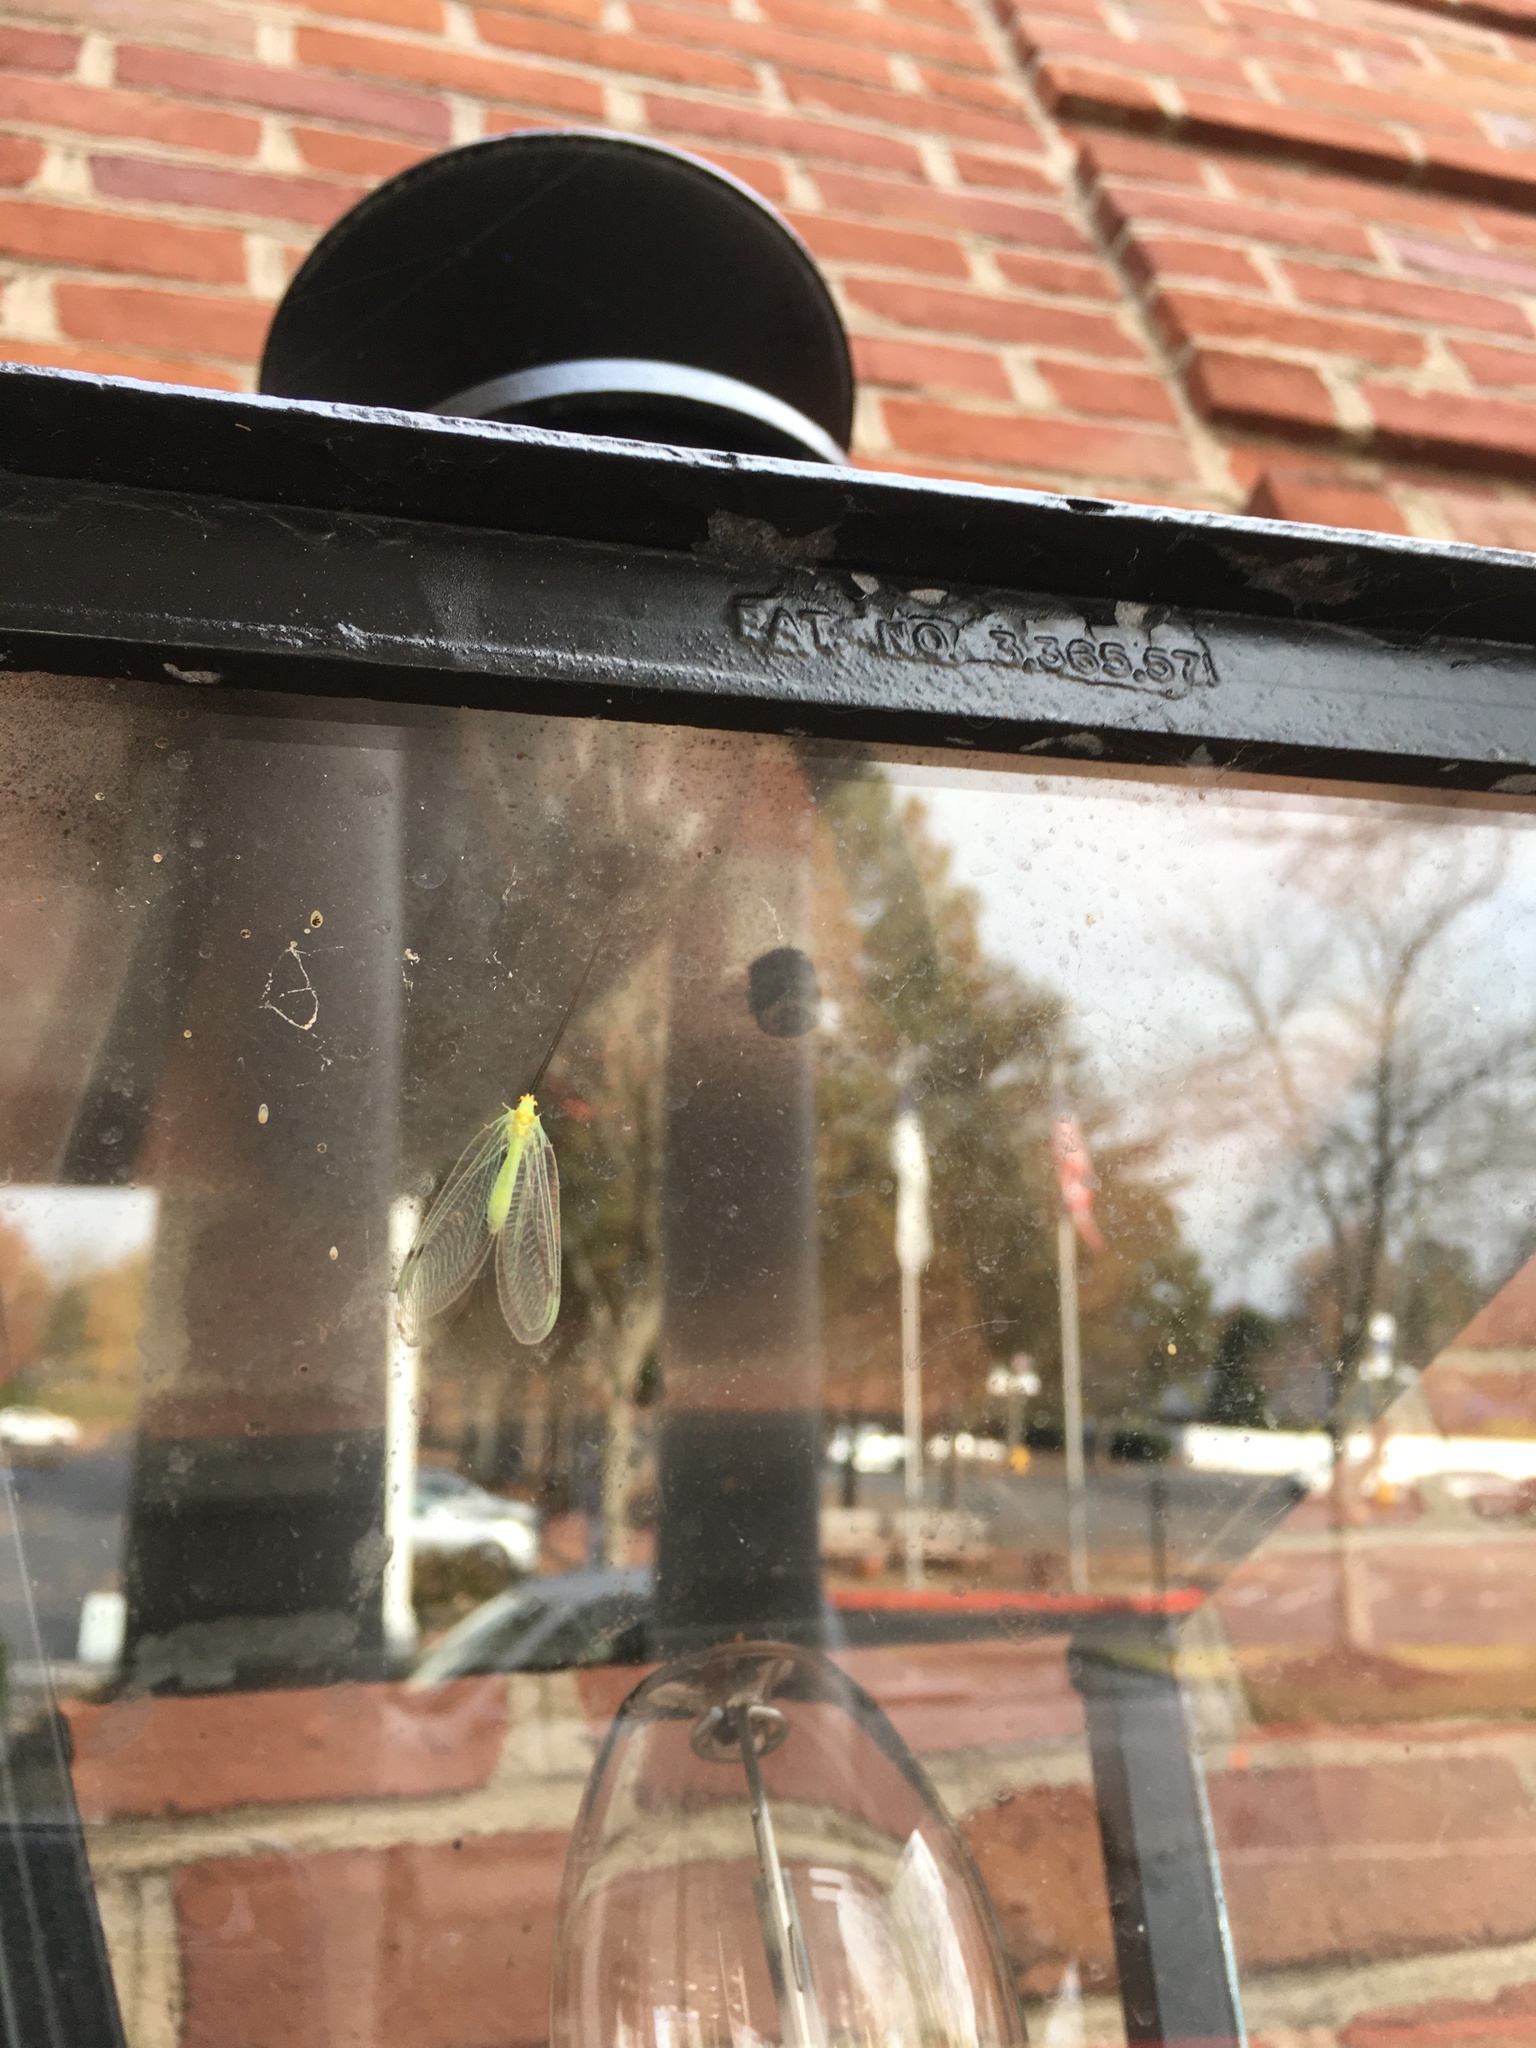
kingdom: Animalia
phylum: Arthropoda
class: Insecta
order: Neuroptera
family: Chrysopidae
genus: Leucochrysa
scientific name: Leucochrysa pavida
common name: Lichen-carrying green lacewing
